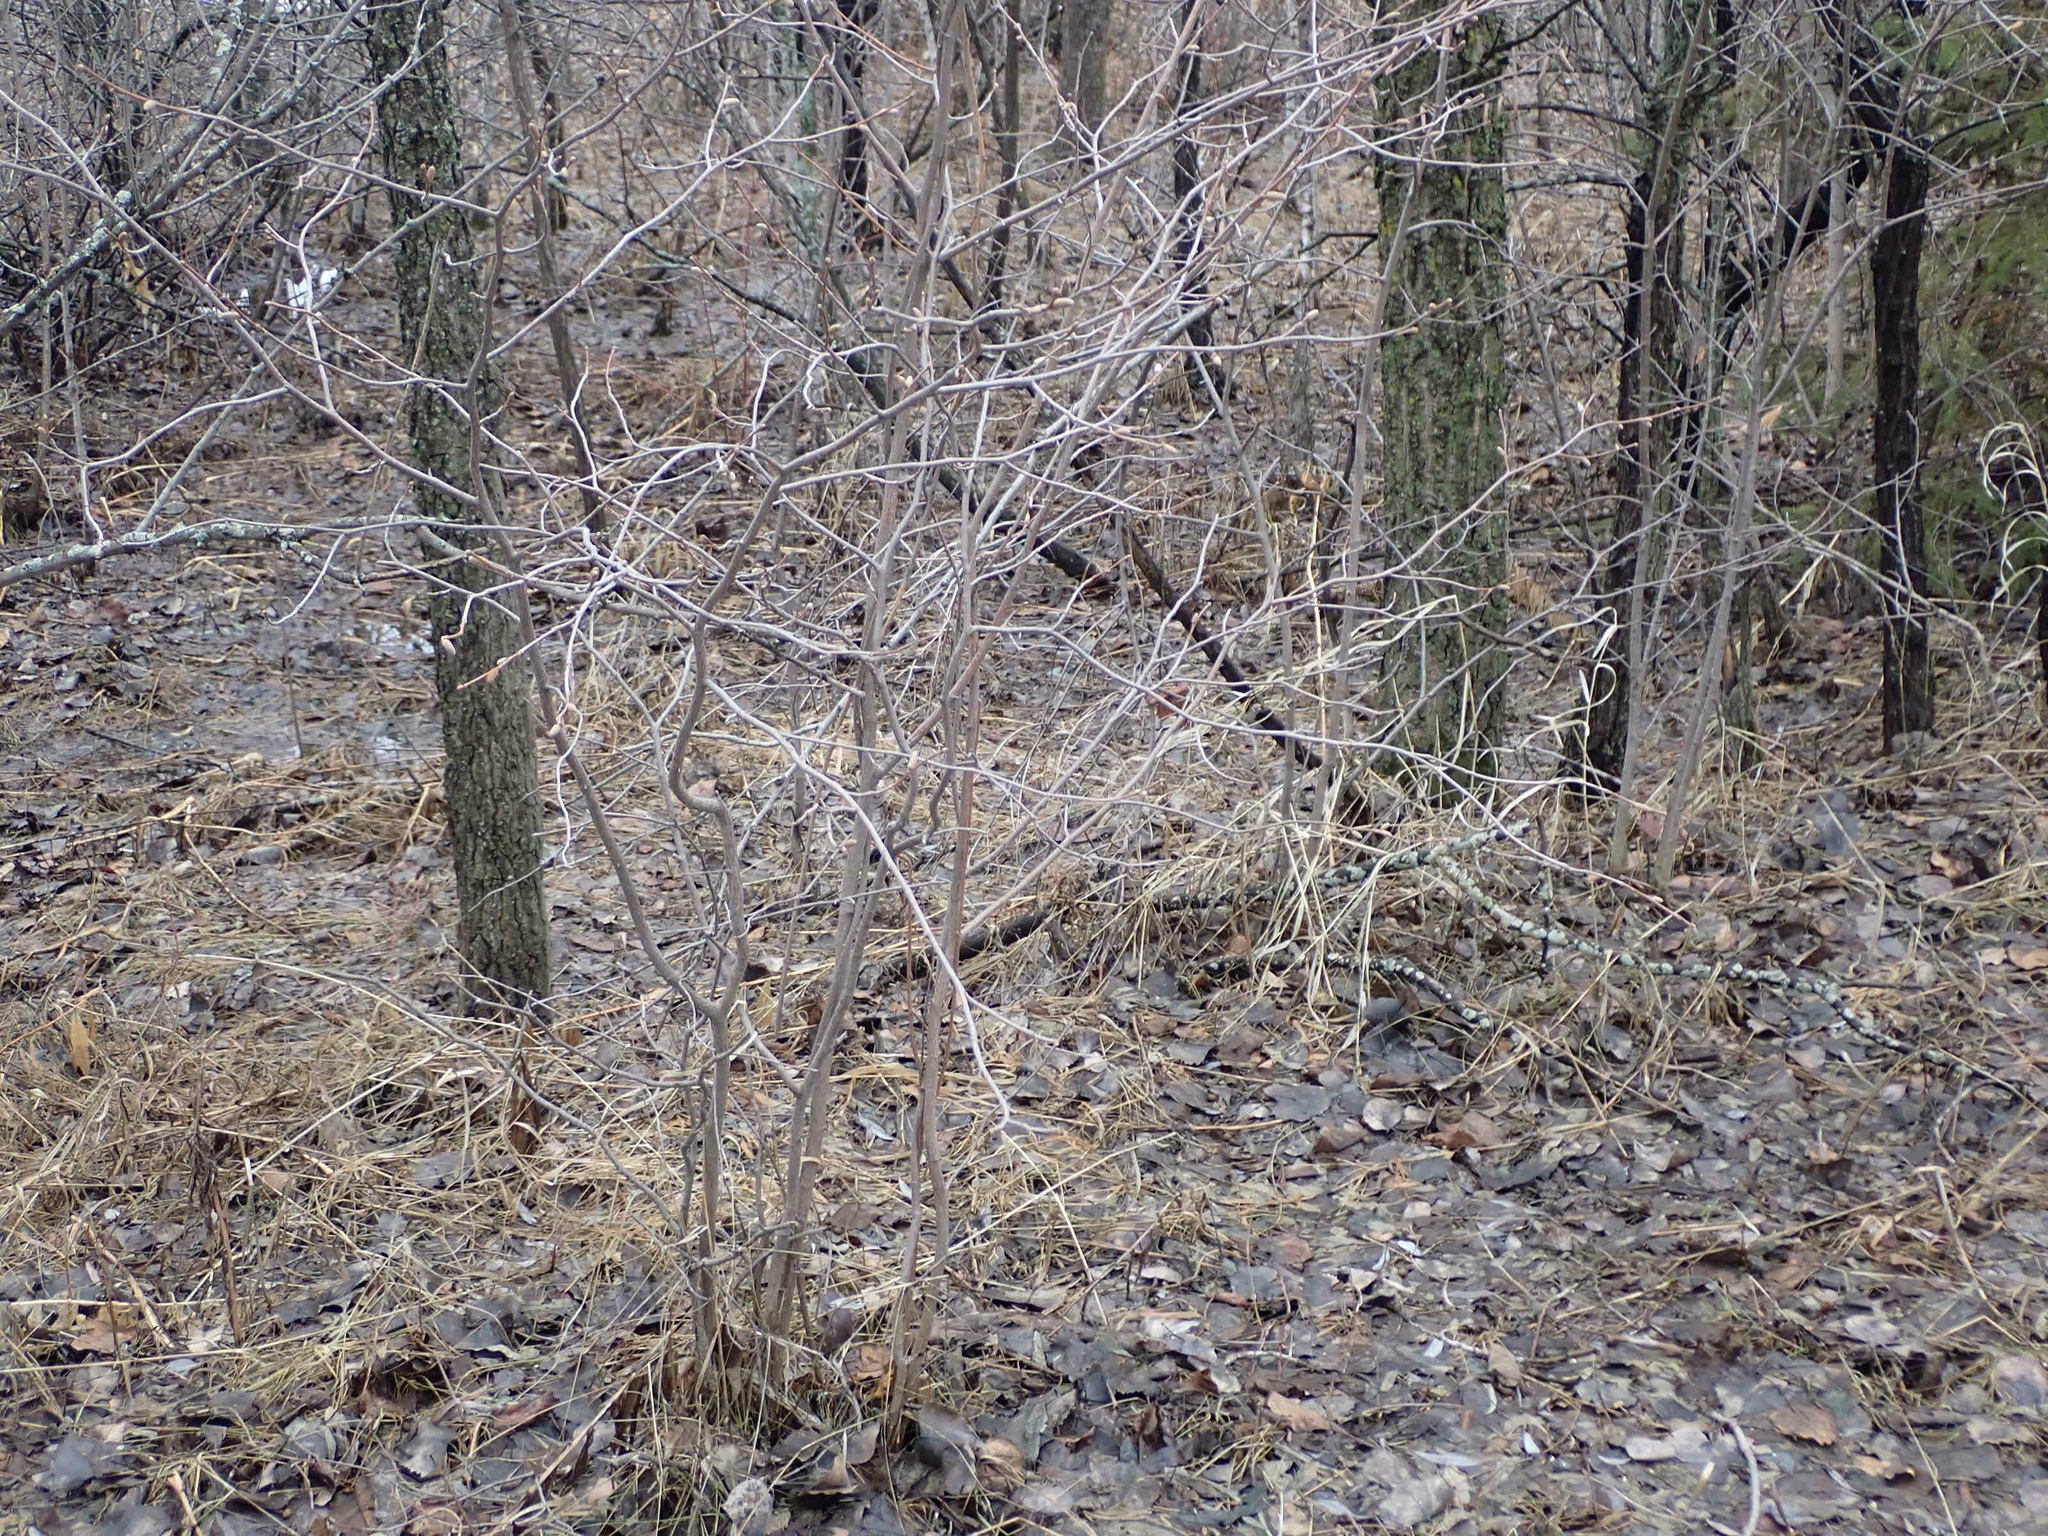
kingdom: Plantae
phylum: Tracheophyta
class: Magnoliopsida
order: Fagales
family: Betulaceae
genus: Corylus
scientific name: Corylus americana
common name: American hazel
